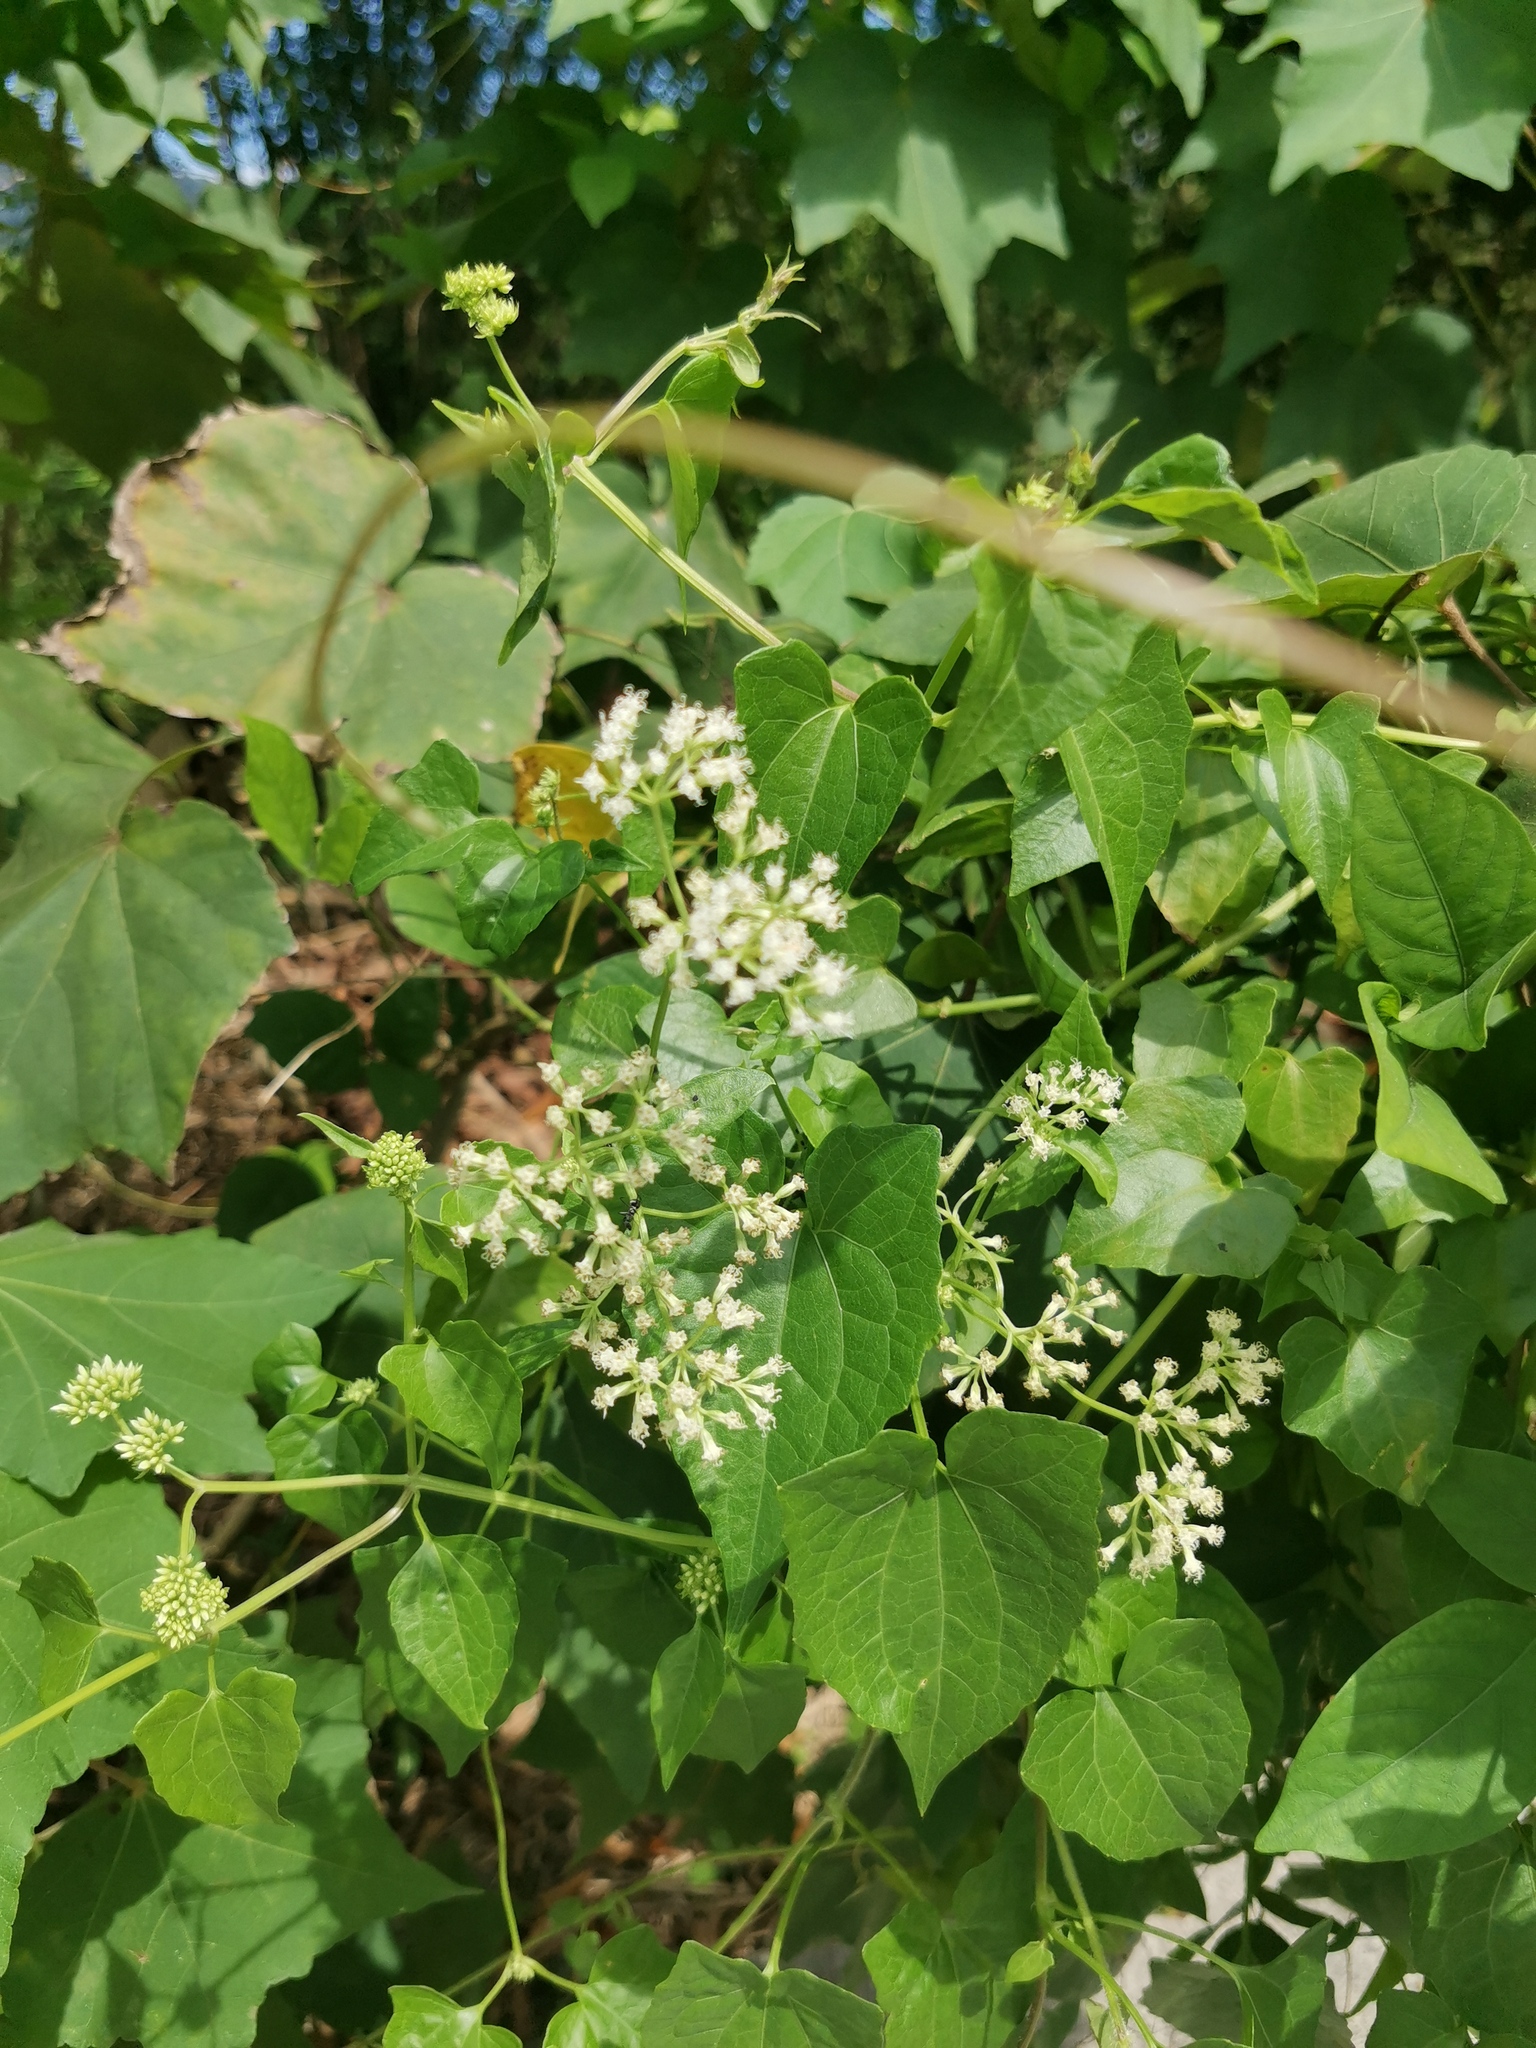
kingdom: Plantae
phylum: Tracheophyta
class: Magnoliopsida
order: Asterales
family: Asteraceae
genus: Mikania
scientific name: Mikania micrantha
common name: Mile-a-minute
